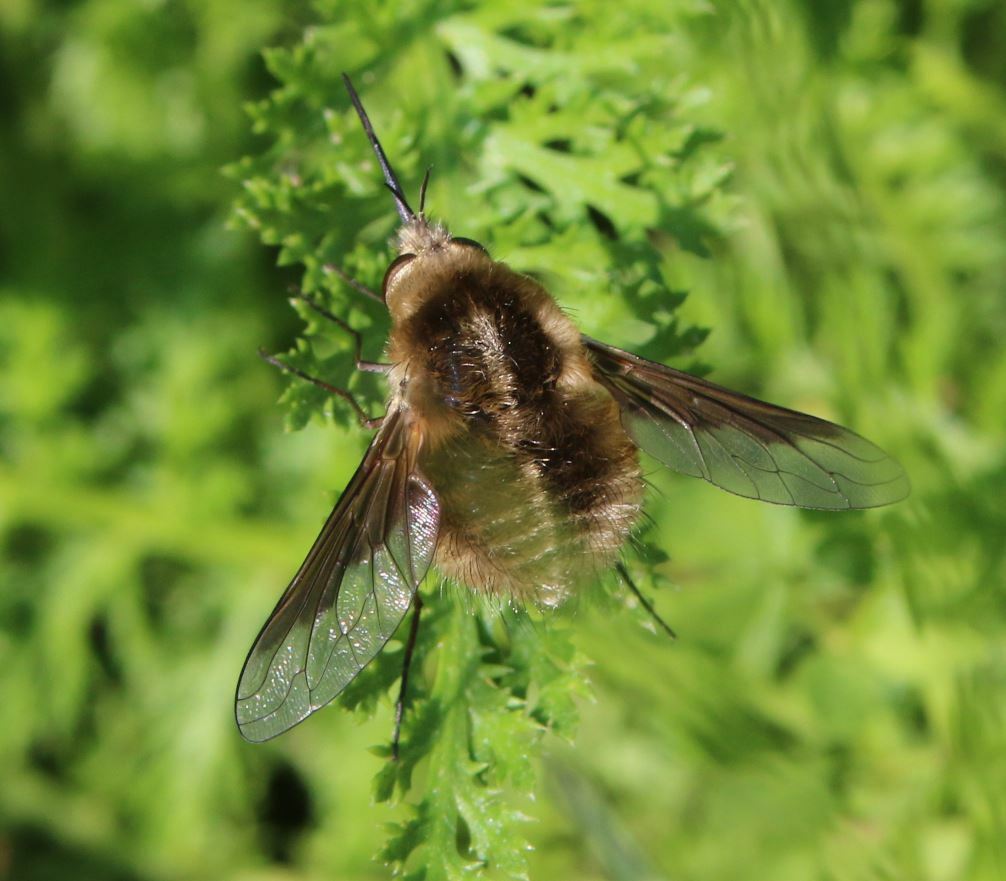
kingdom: Animalia
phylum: Arthropoda
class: Insecta
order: Diptera
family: Bombyliidae
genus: Bombylius
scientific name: Bombylius analis
